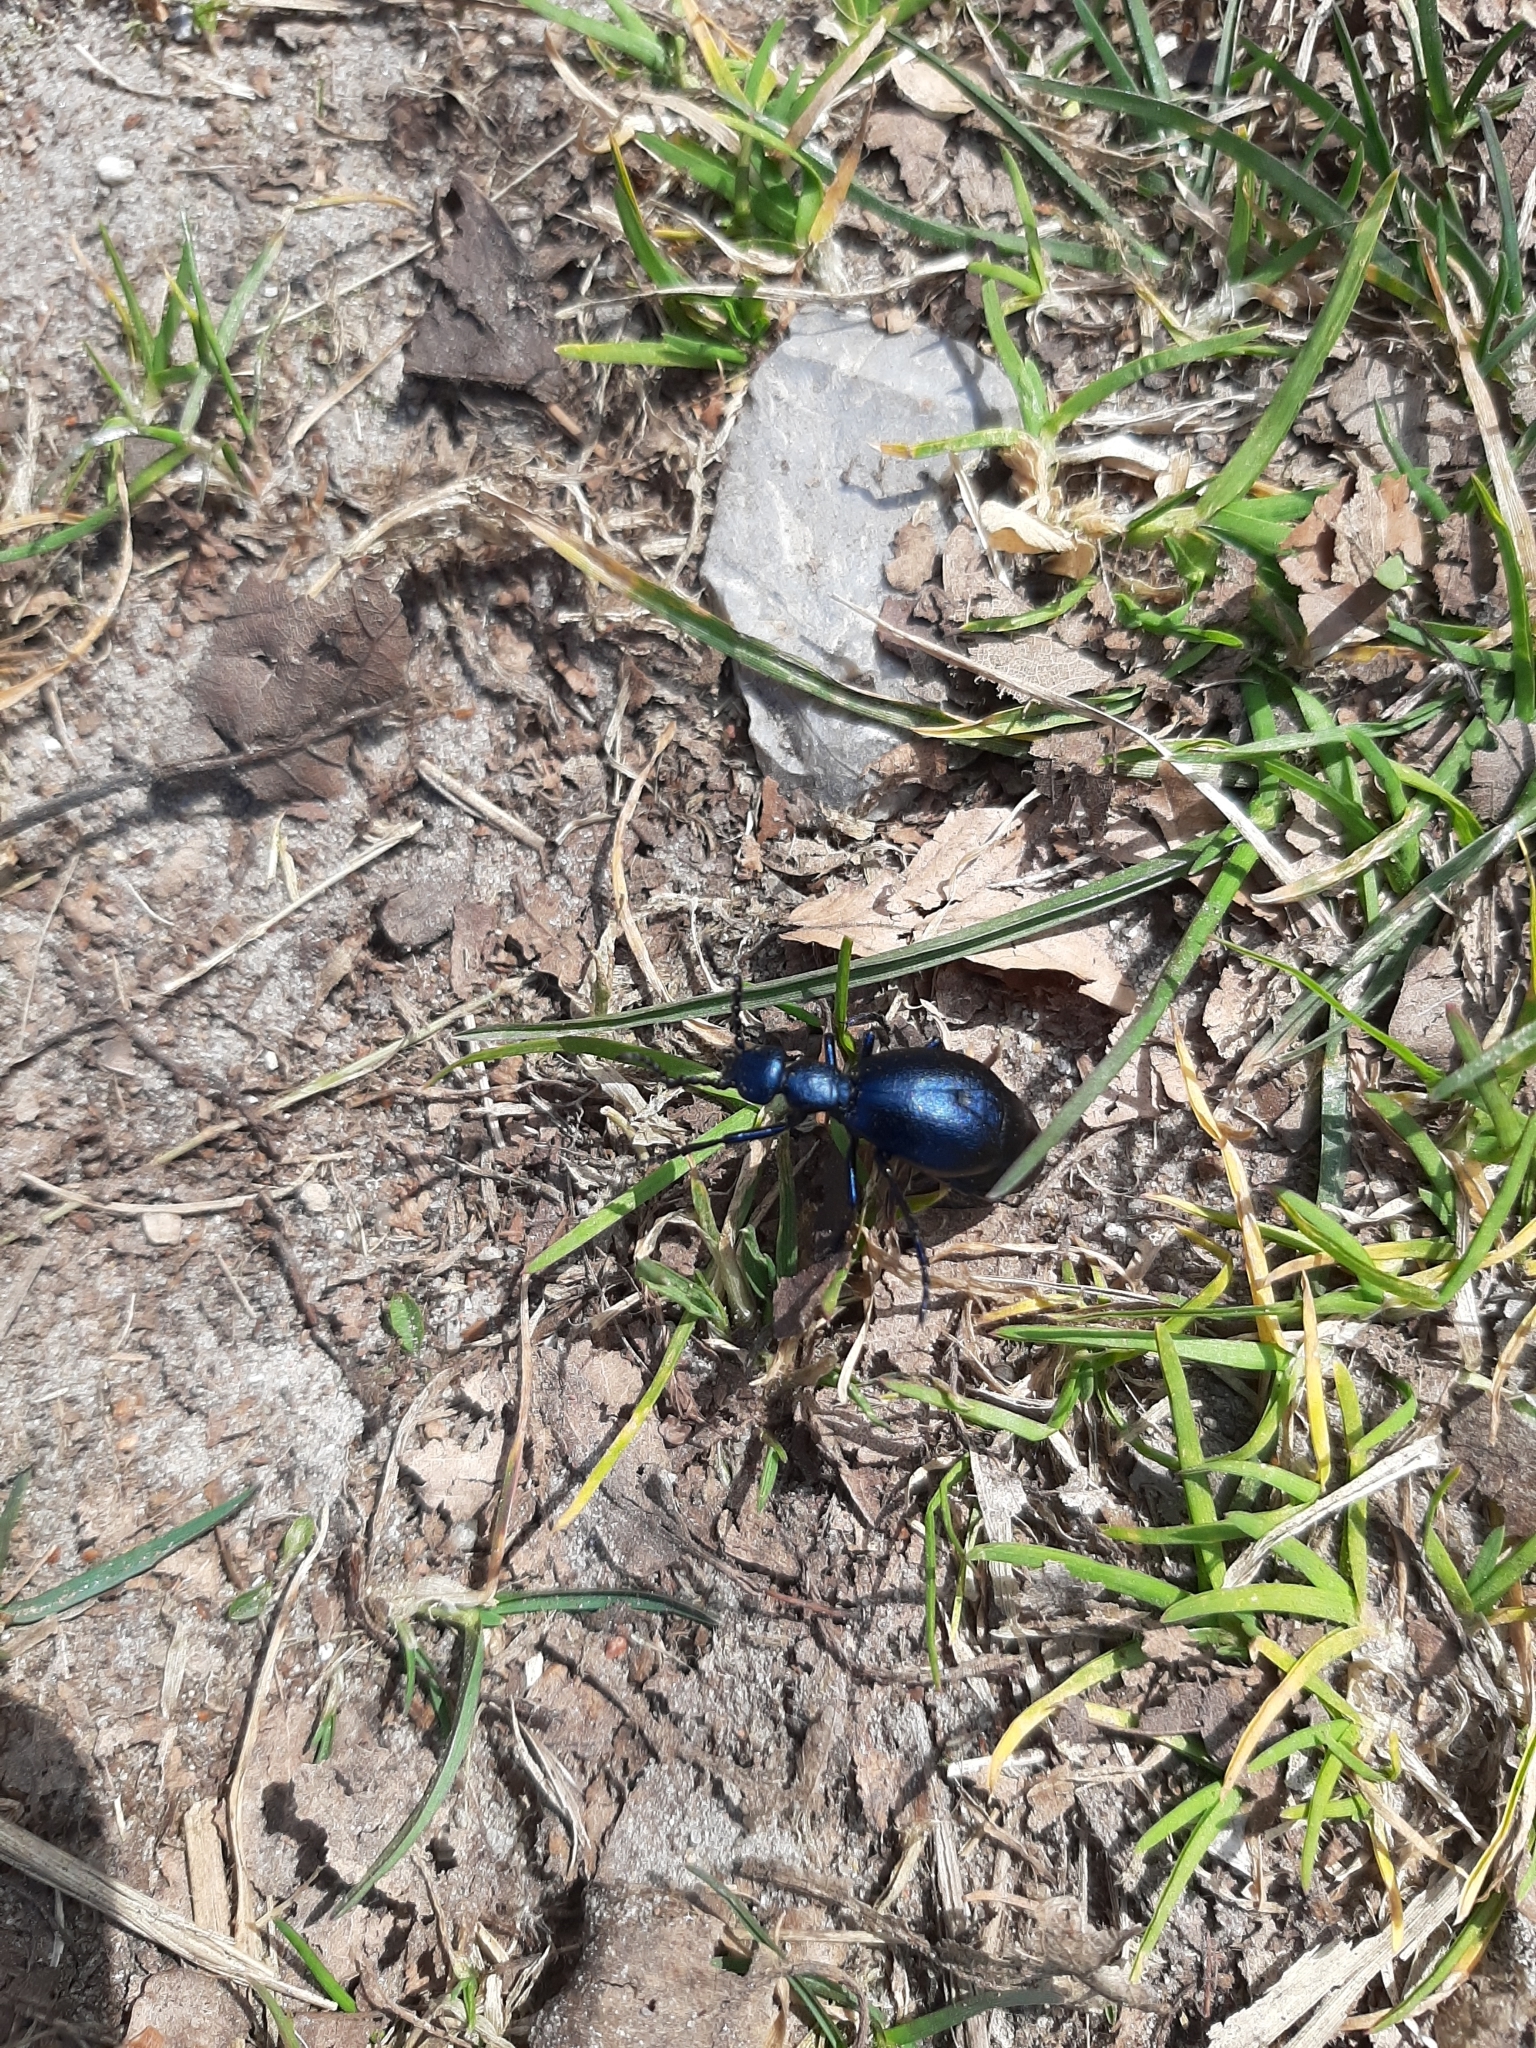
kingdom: Animalia
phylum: Arthropoda
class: Insecta
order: Coleoptera
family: Meloidae
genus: Meloe
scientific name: Meloe violaceus
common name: Violet oil-beetle
